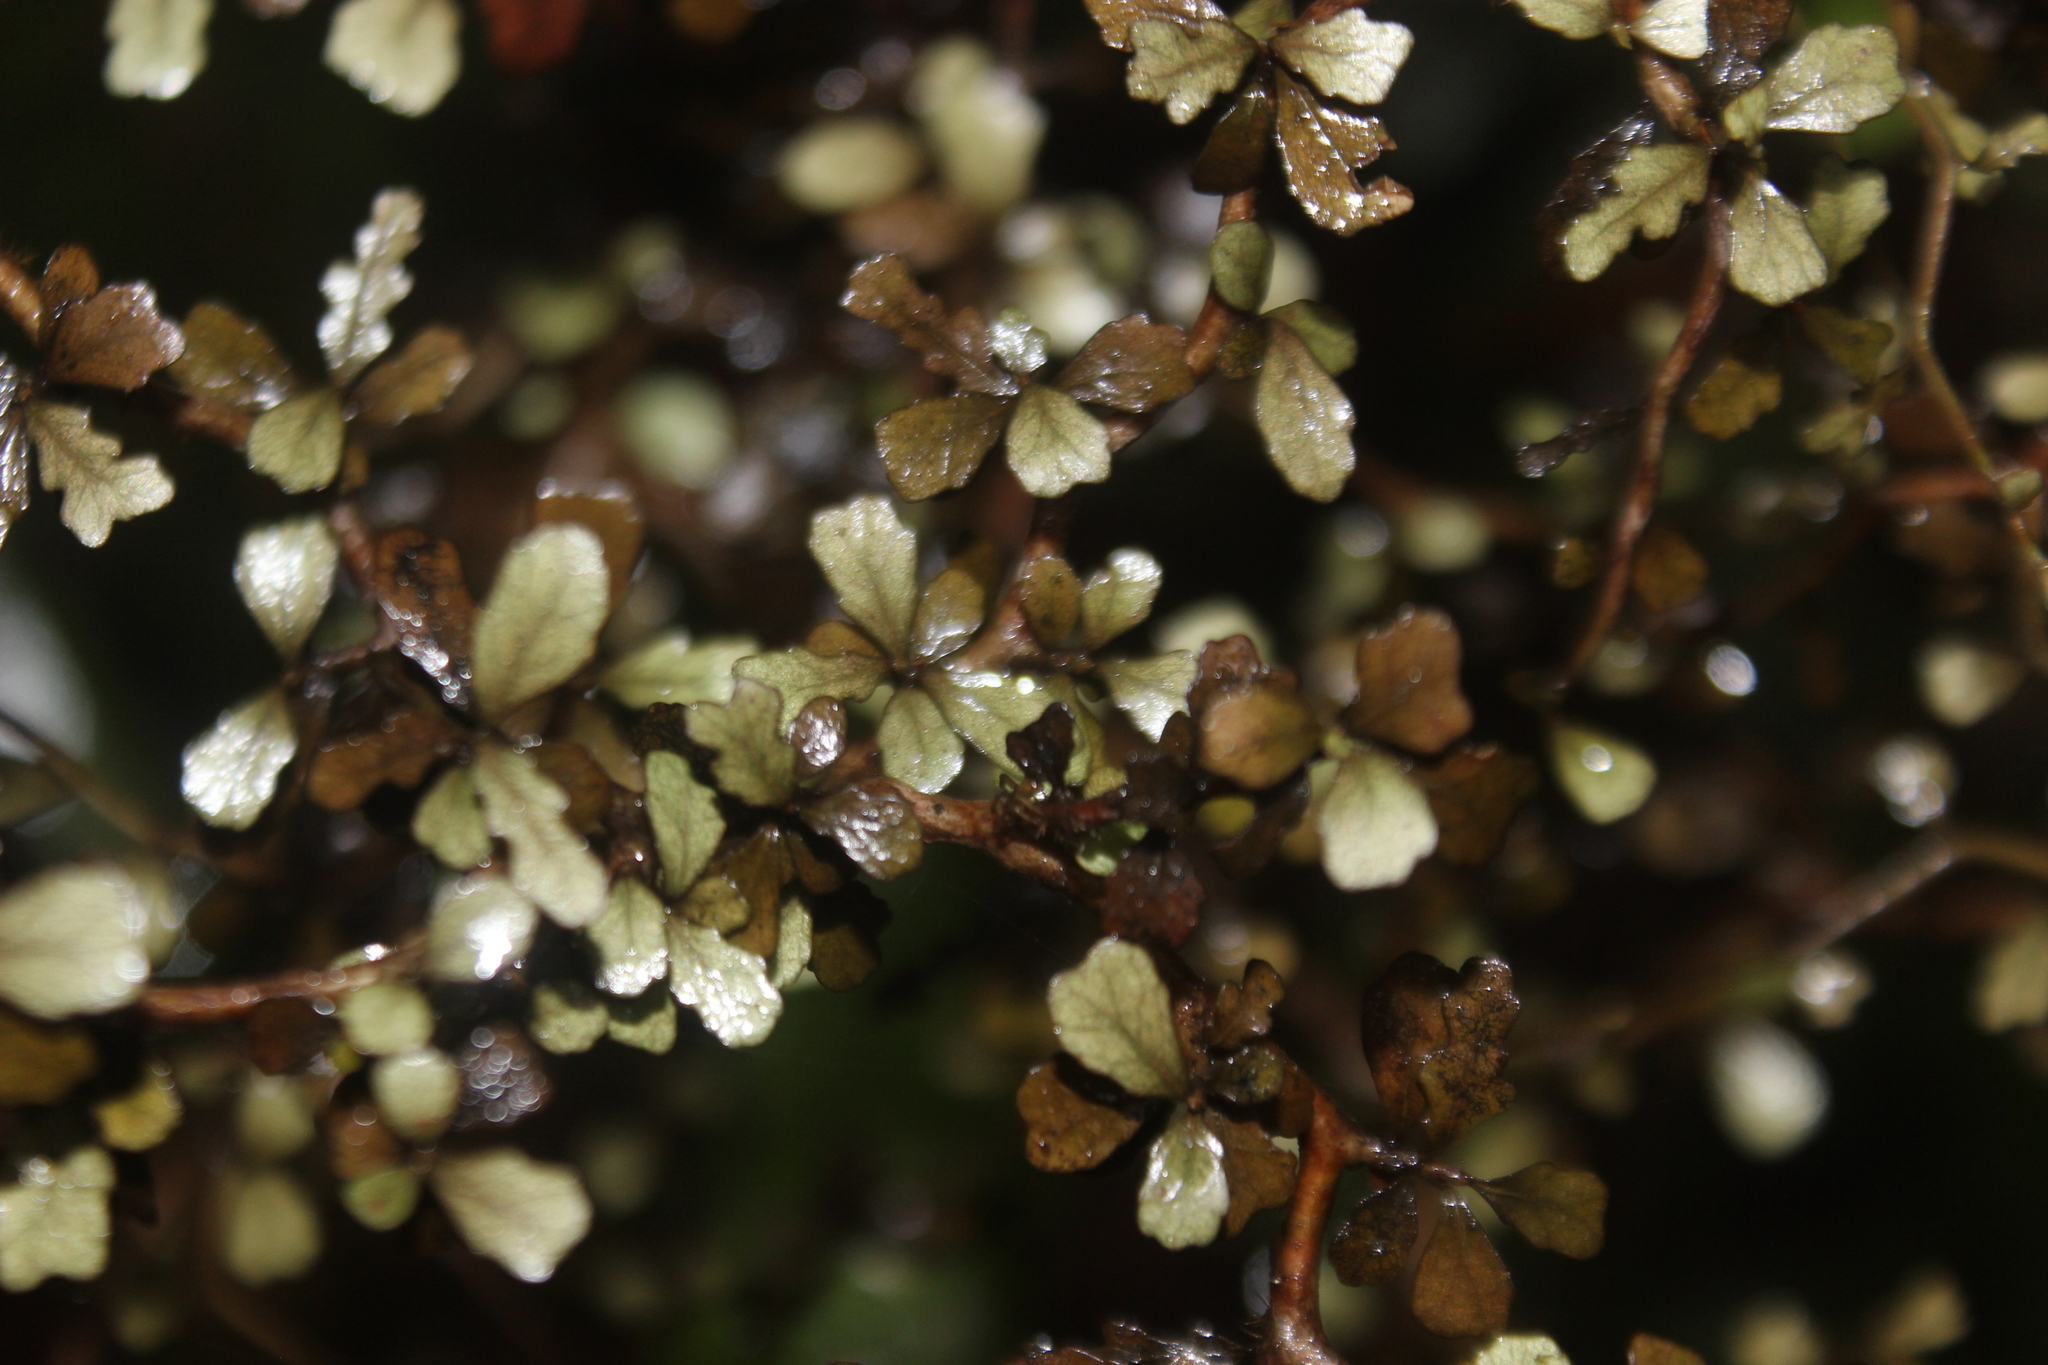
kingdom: Plantae
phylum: Tracheophyta
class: Magnoliopsida
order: Oxalidales
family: Elaeocarpaceae
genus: Elaeocarpus
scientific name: Elaeocarpus hookerianus
